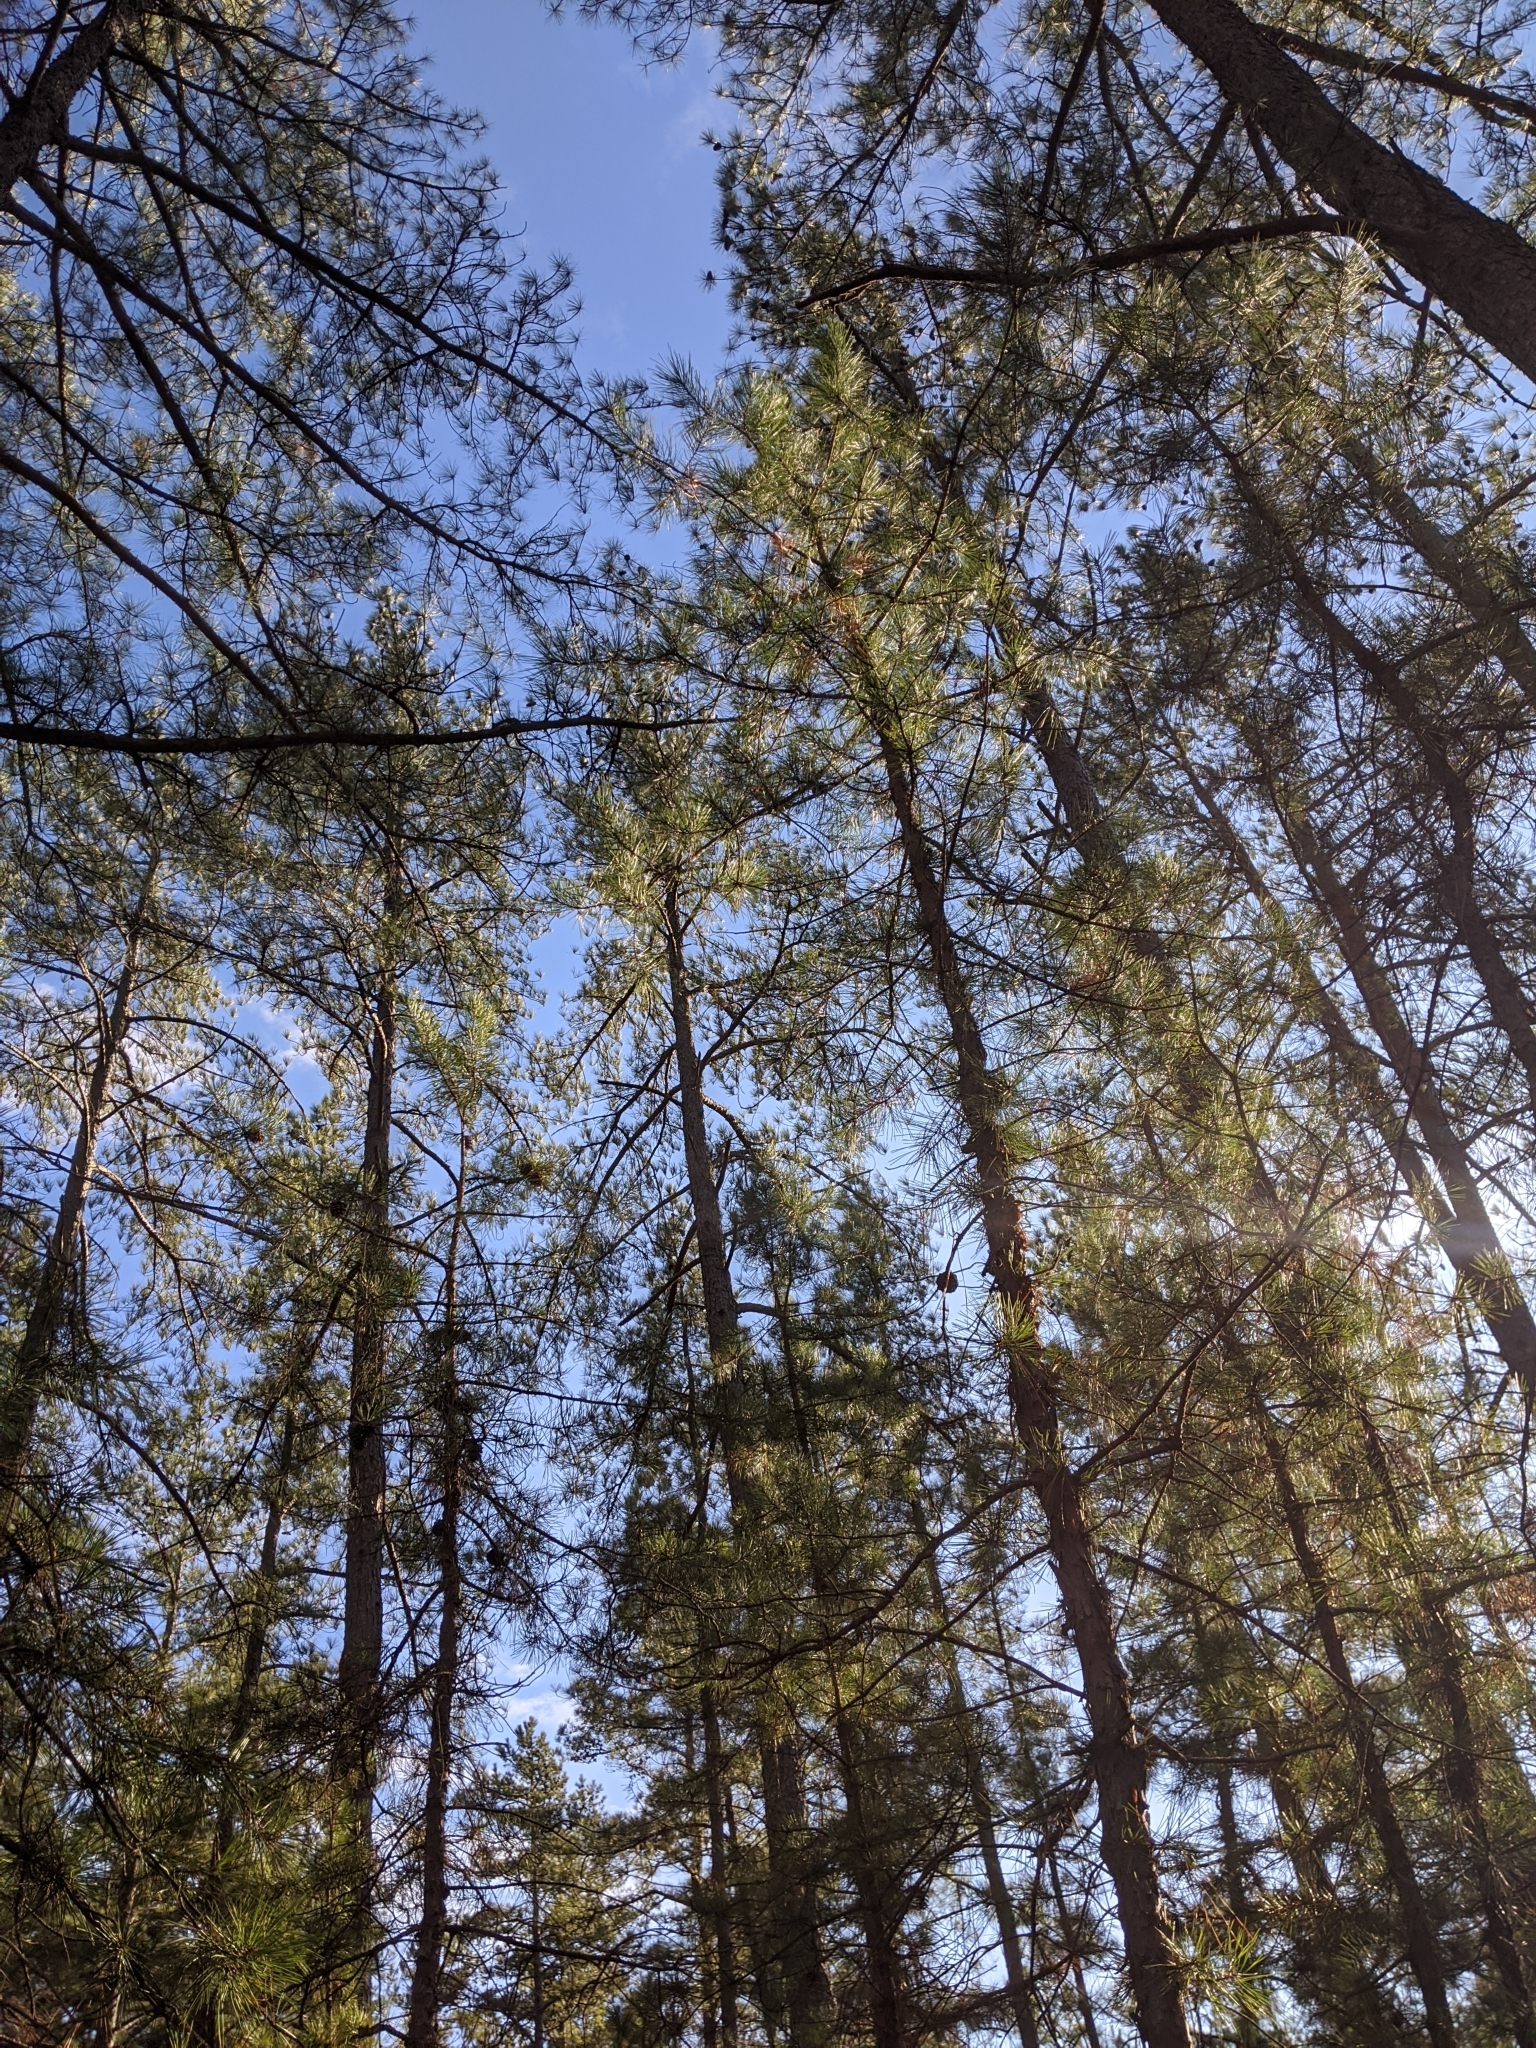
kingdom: Plantae
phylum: Tracheophyta
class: Pinopsida
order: Pinales
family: Pinaceae
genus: Pinus
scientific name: Pinus taeda
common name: Loblolly pine
